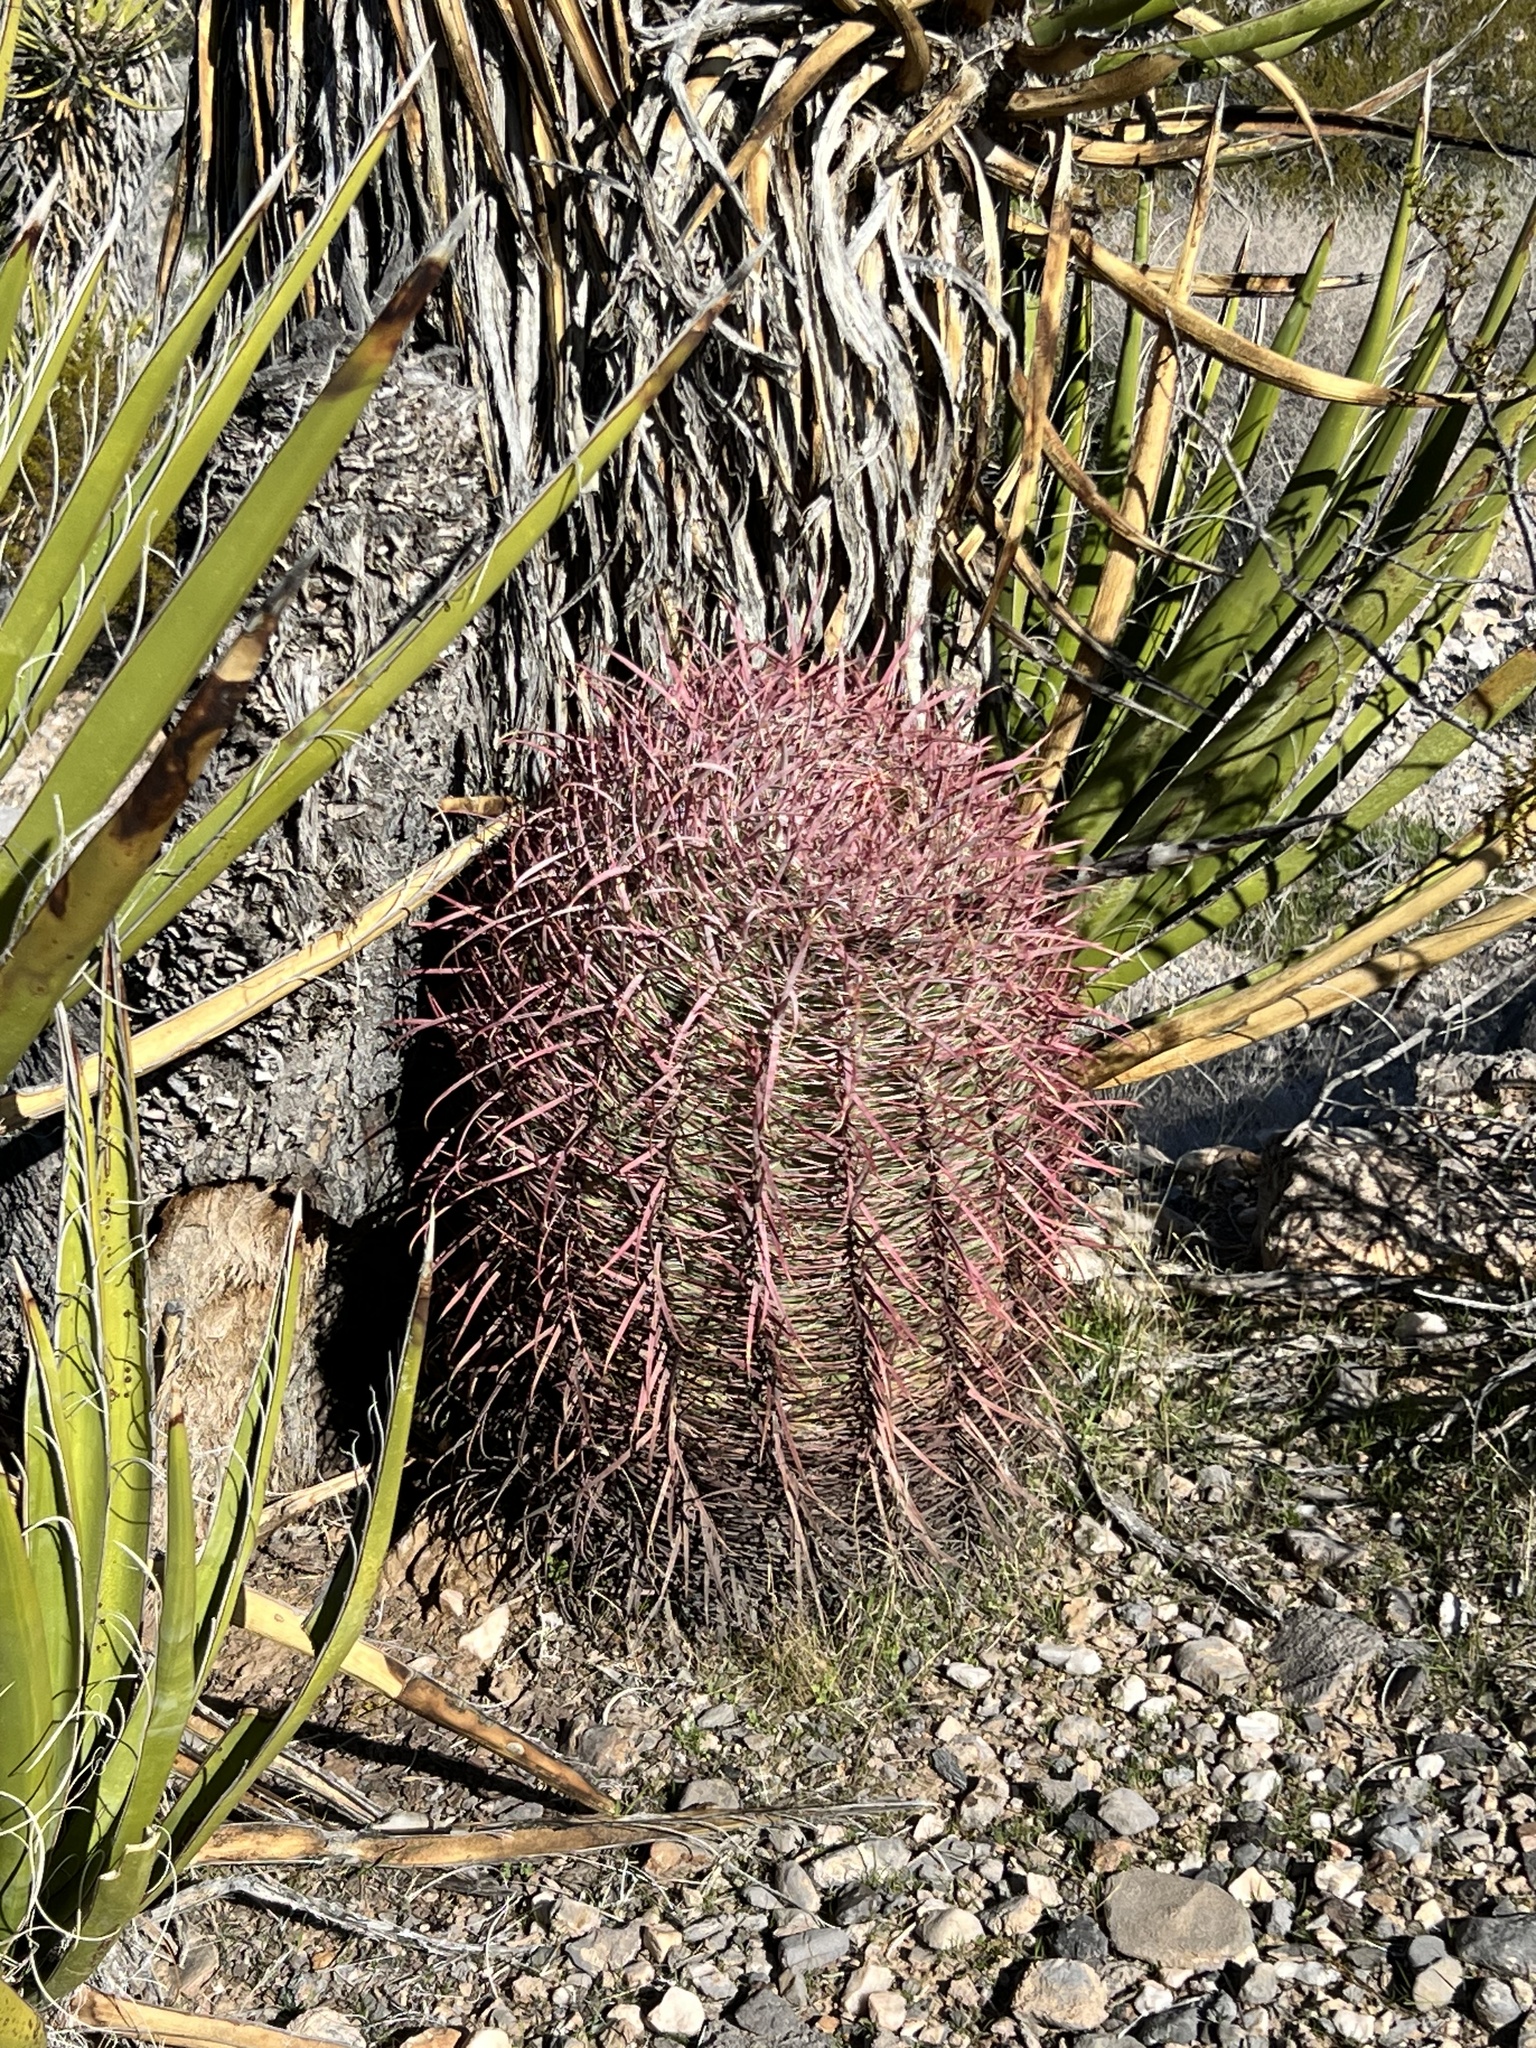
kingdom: Plantae
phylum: Tracheophyta
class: Magnoliopsida
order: Caryophyllales
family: Cactaceae
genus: Ferocactus
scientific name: Ferocactus cylindraceus
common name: California barrel cactus
